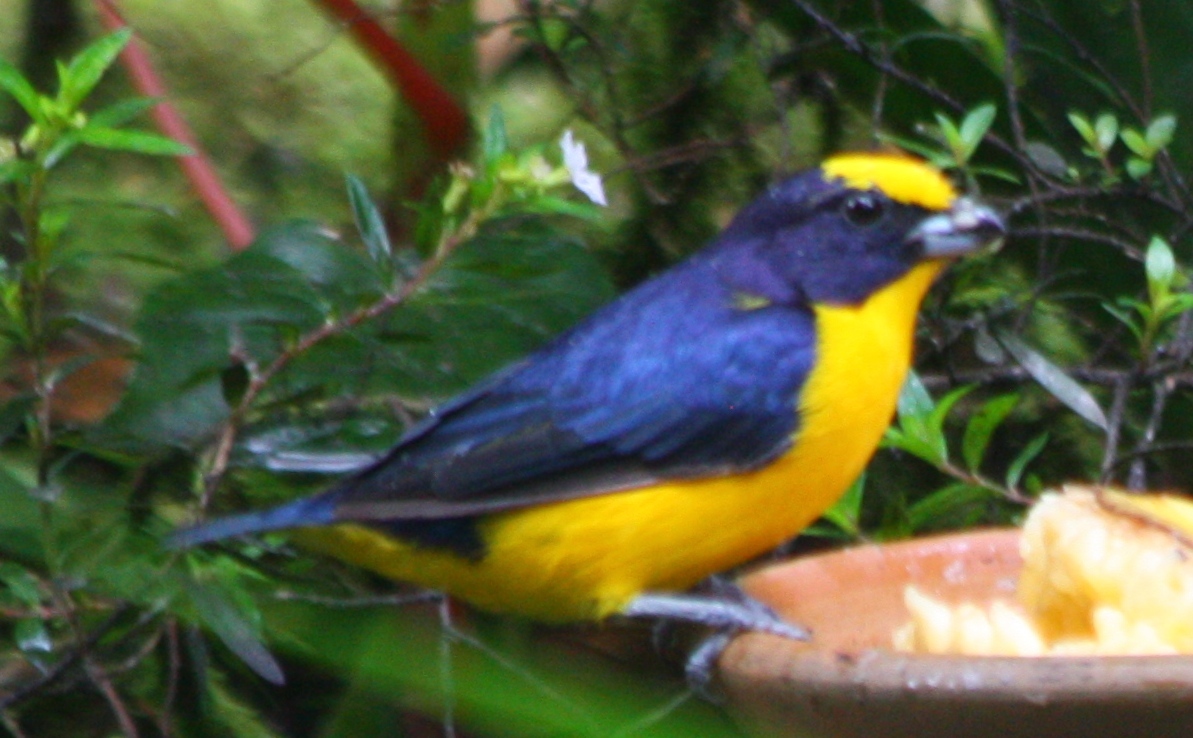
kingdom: Animalia
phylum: Chordata
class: Aves
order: Passeriformes
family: Fringillidae
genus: Euphonia
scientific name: Euphonia laniirostris
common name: Thick-billed euphonia
